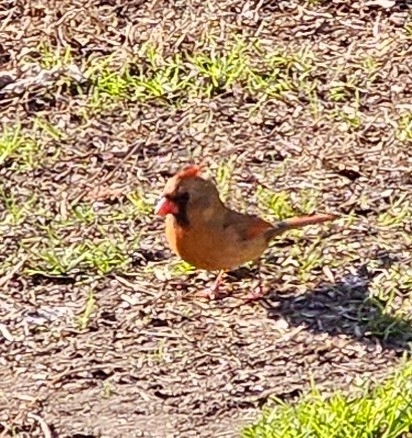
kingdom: Animalia
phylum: Chordata
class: Aves
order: Passeriformes
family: Cardinalidae
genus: Cardinalis
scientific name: Cardinalis cardinalis
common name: Northern cardinal
